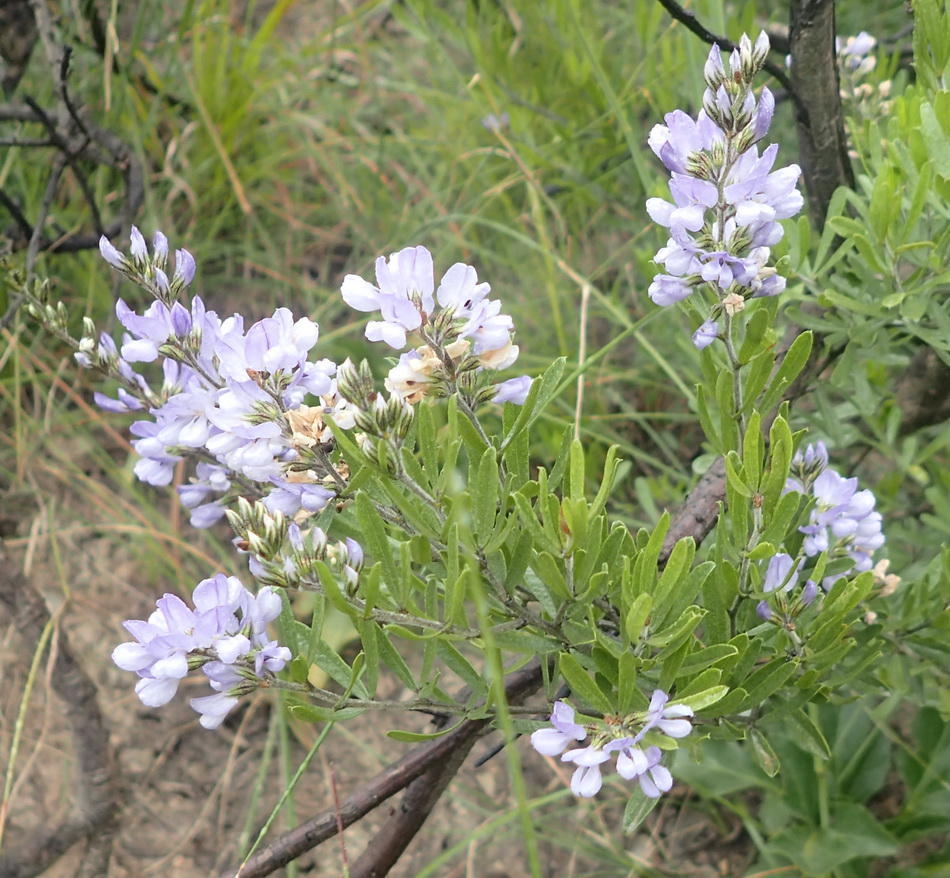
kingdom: Plantae
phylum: Tracheophyta
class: Magnoliopsida
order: Fabales
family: Fabaceae
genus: Psoralea
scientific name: Psoralea racemosa
